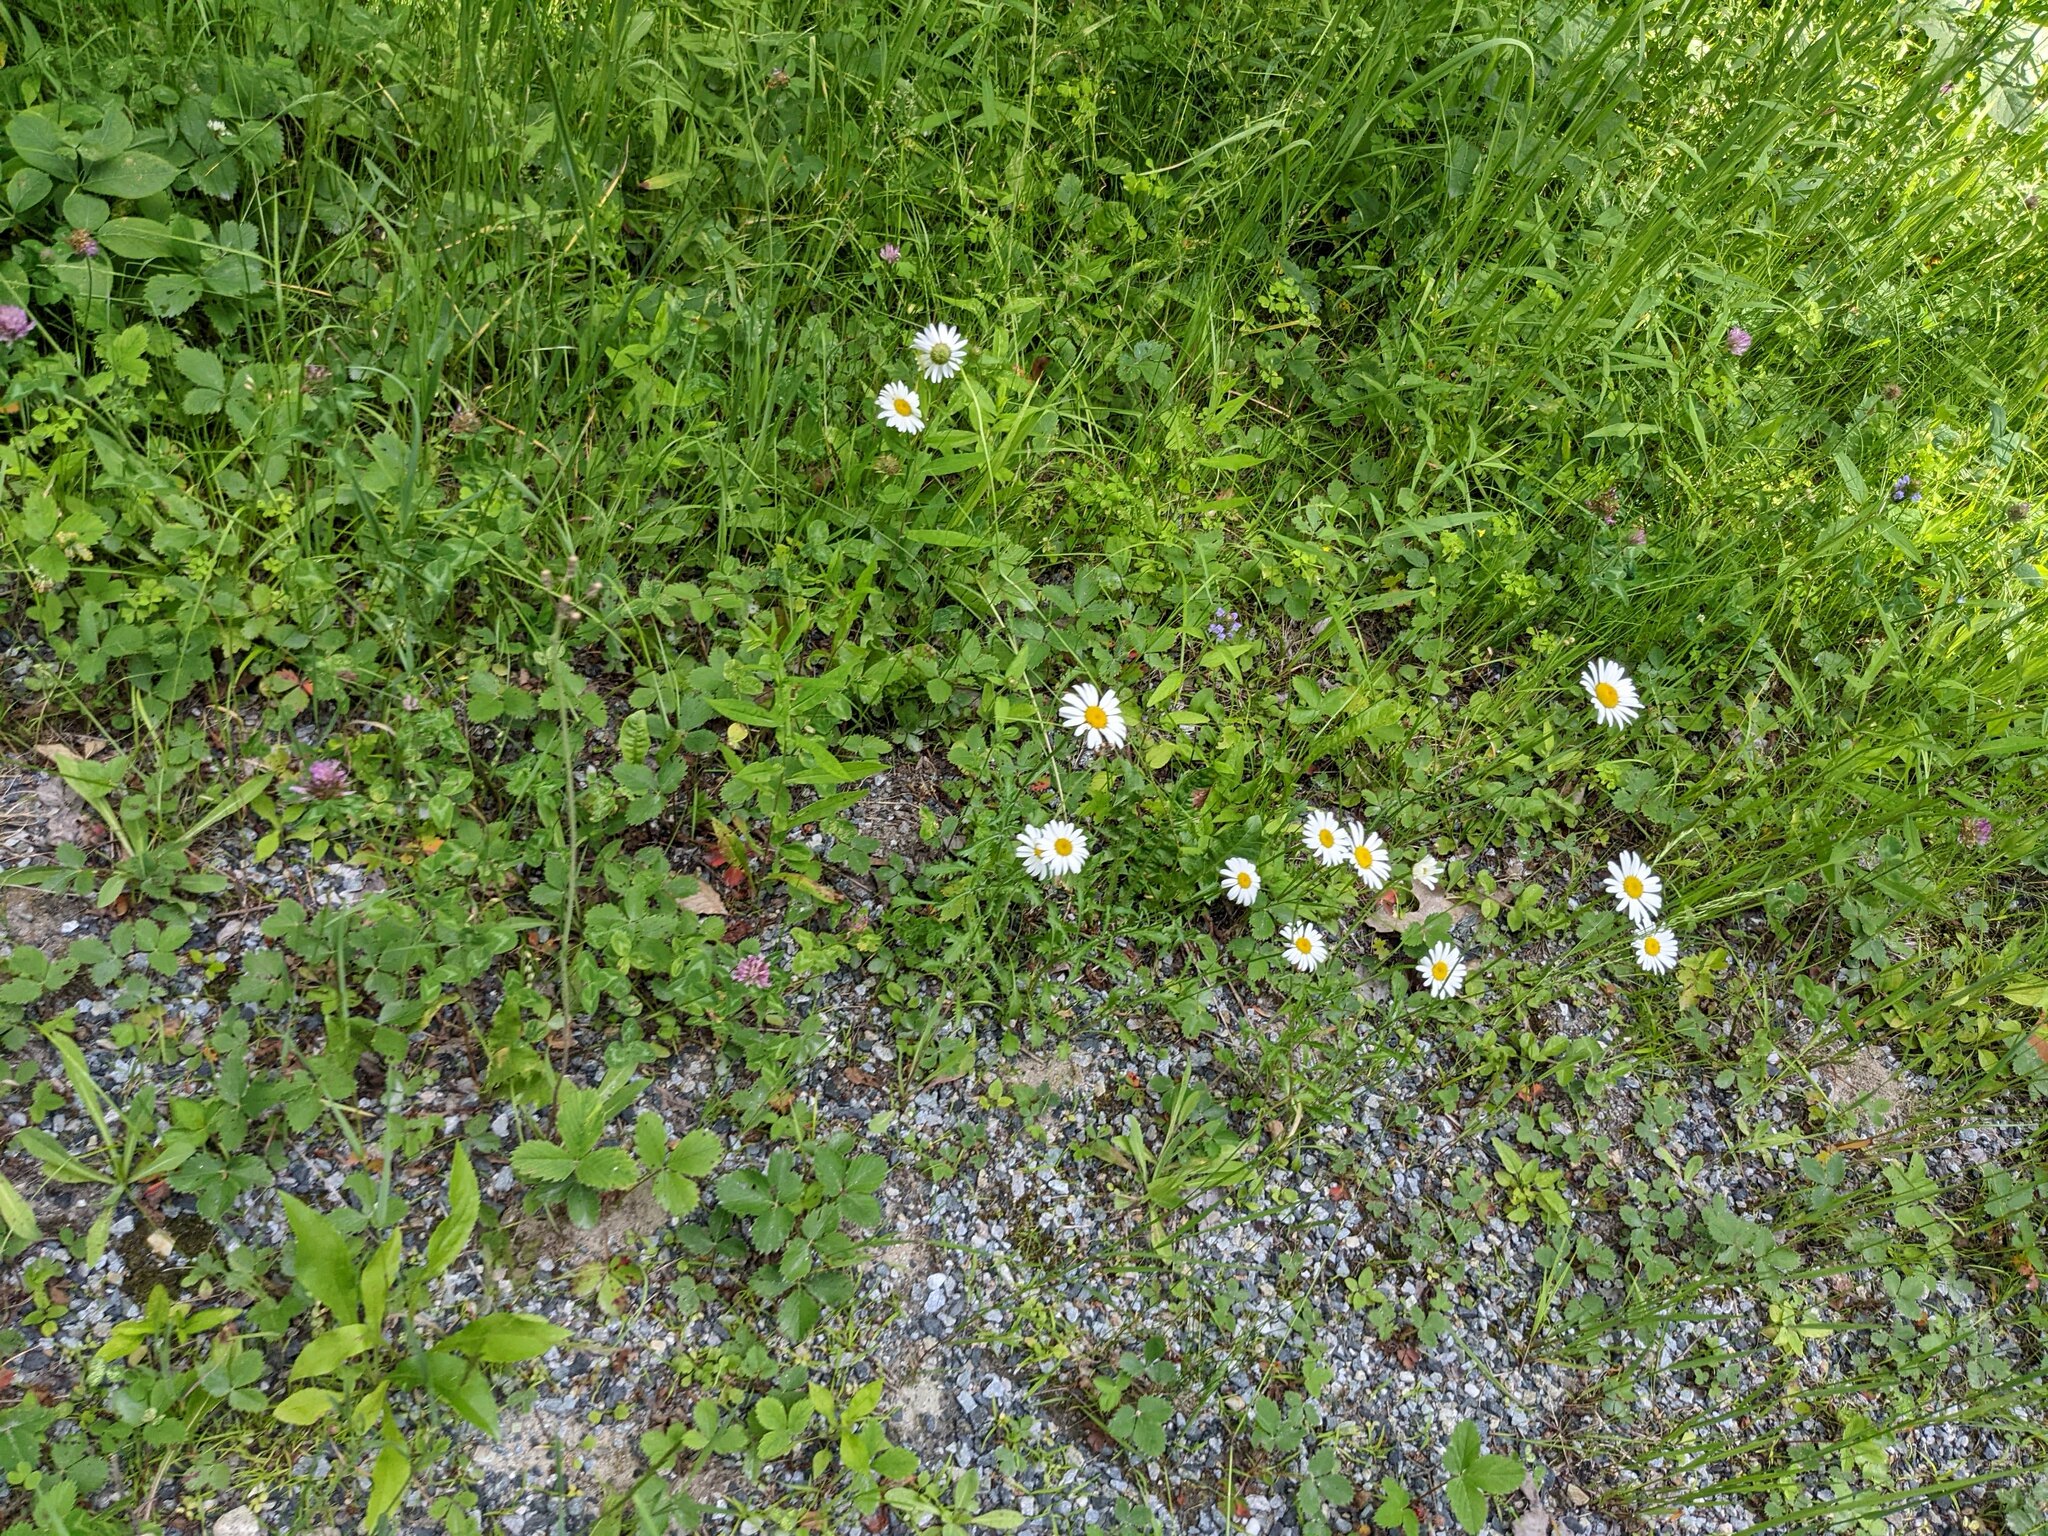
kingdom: Plantae
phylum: Tracheophyta
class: Magnoliopsida
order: Asterales
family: Asteraceae
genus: Leucanthemum
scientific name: Leucanthemum vulgare
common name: Oxeye daisy
